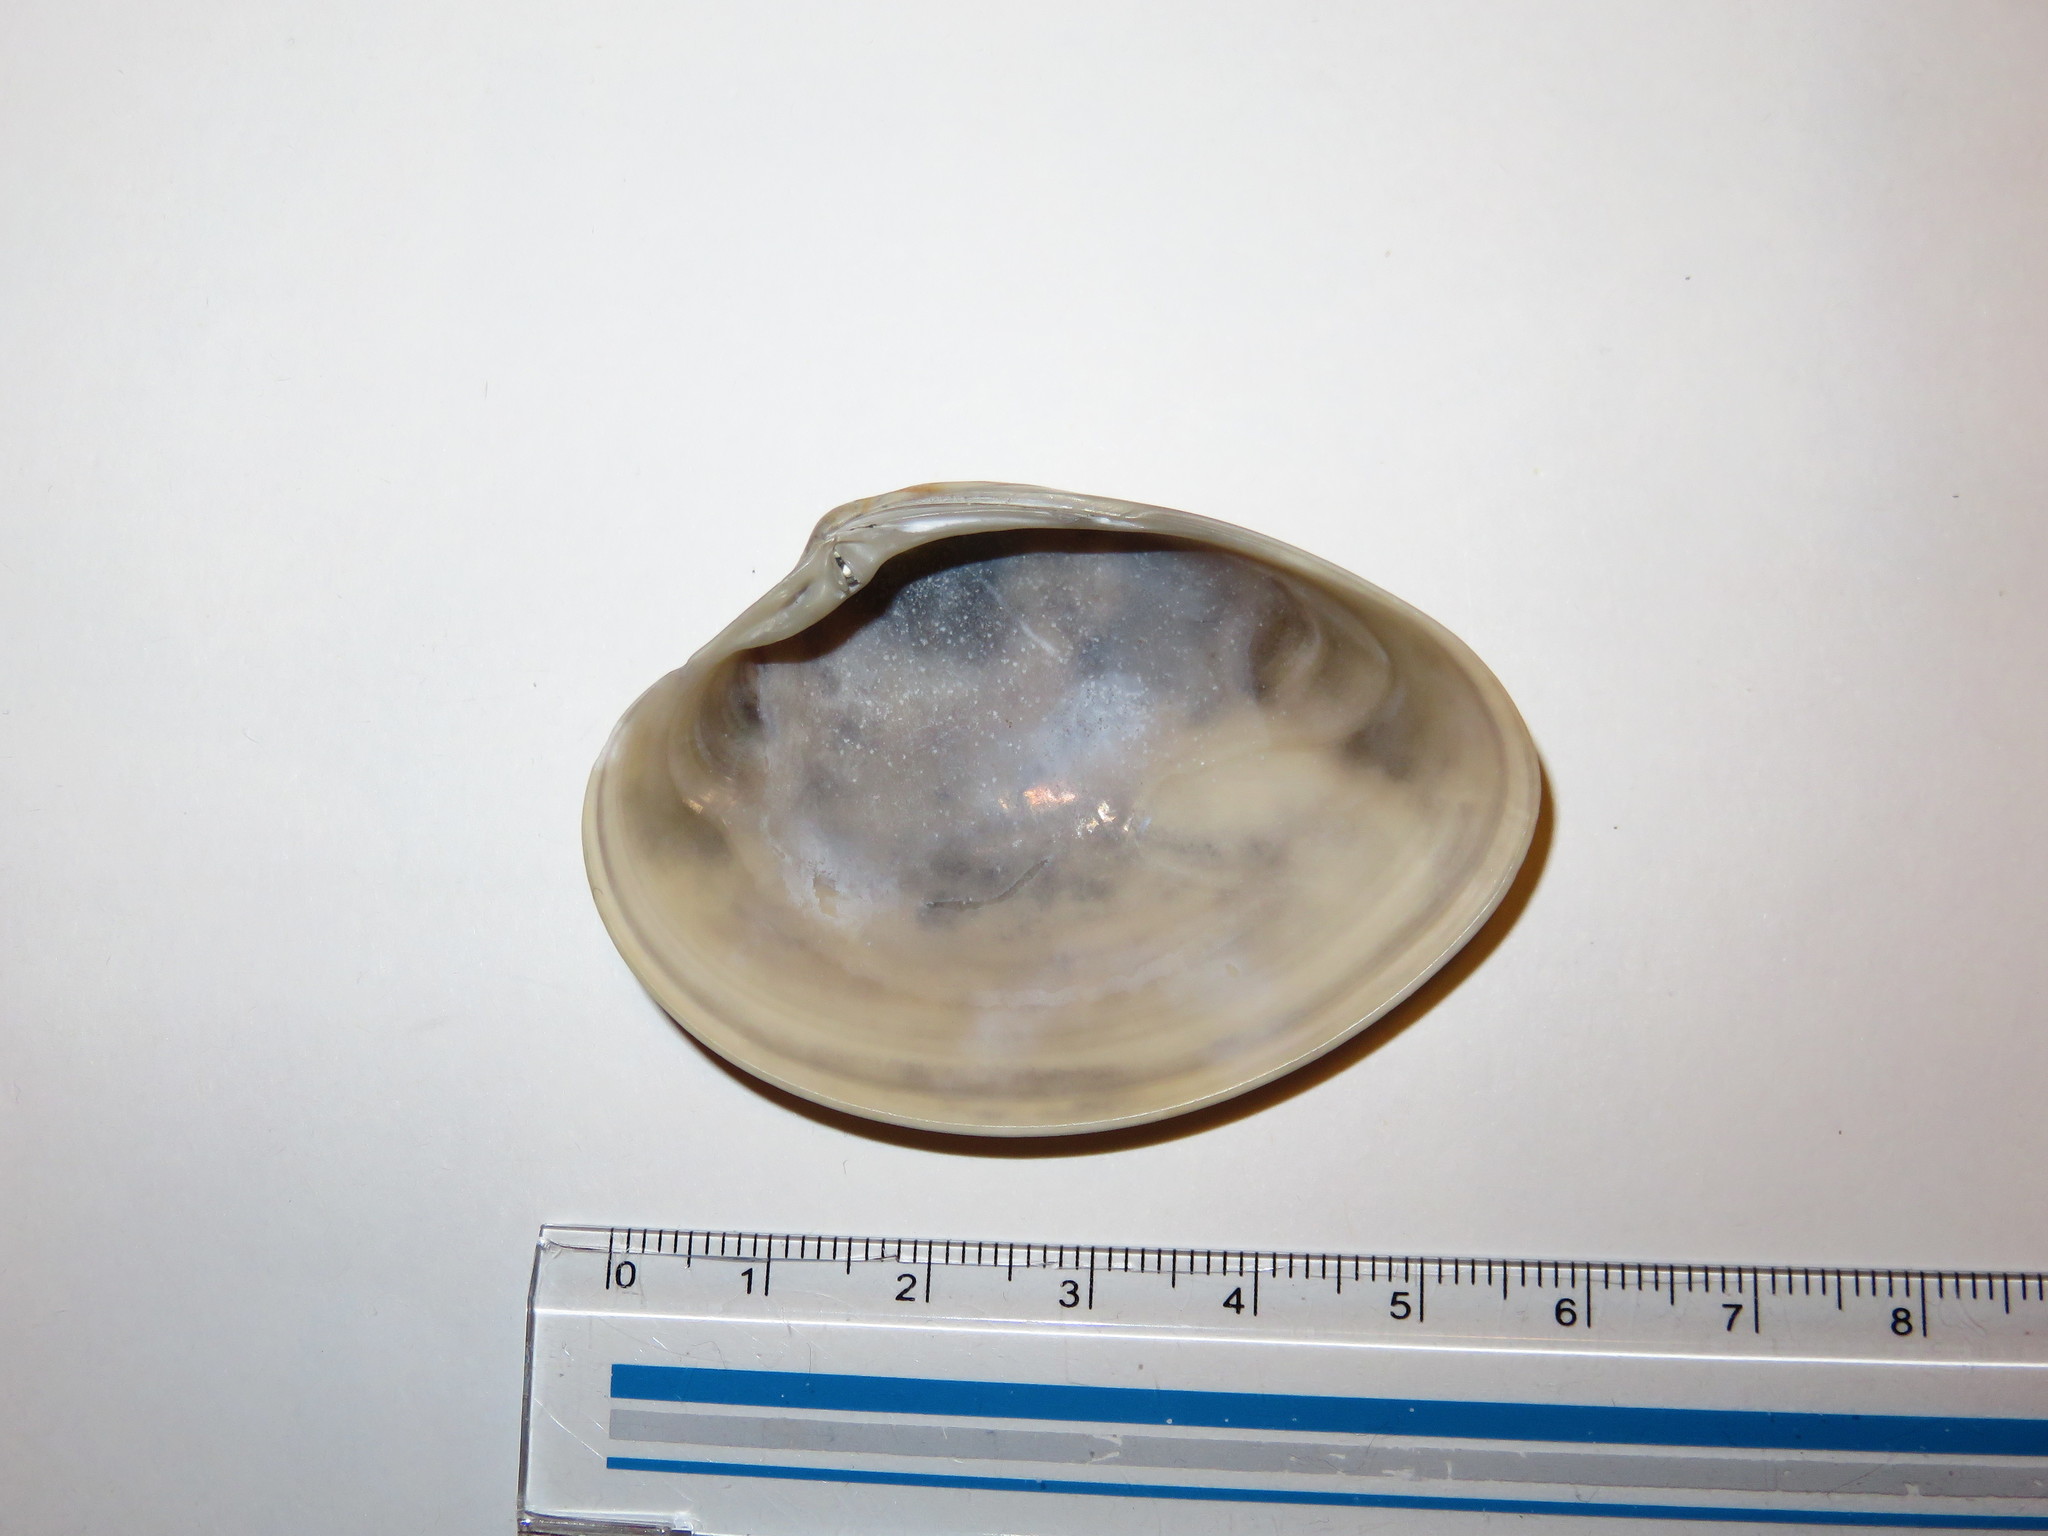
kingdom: Animalia
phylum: Mollusca
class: Bivalvia
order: Venerida
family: Veneridae
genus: Callista
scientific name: Callista chinensis
